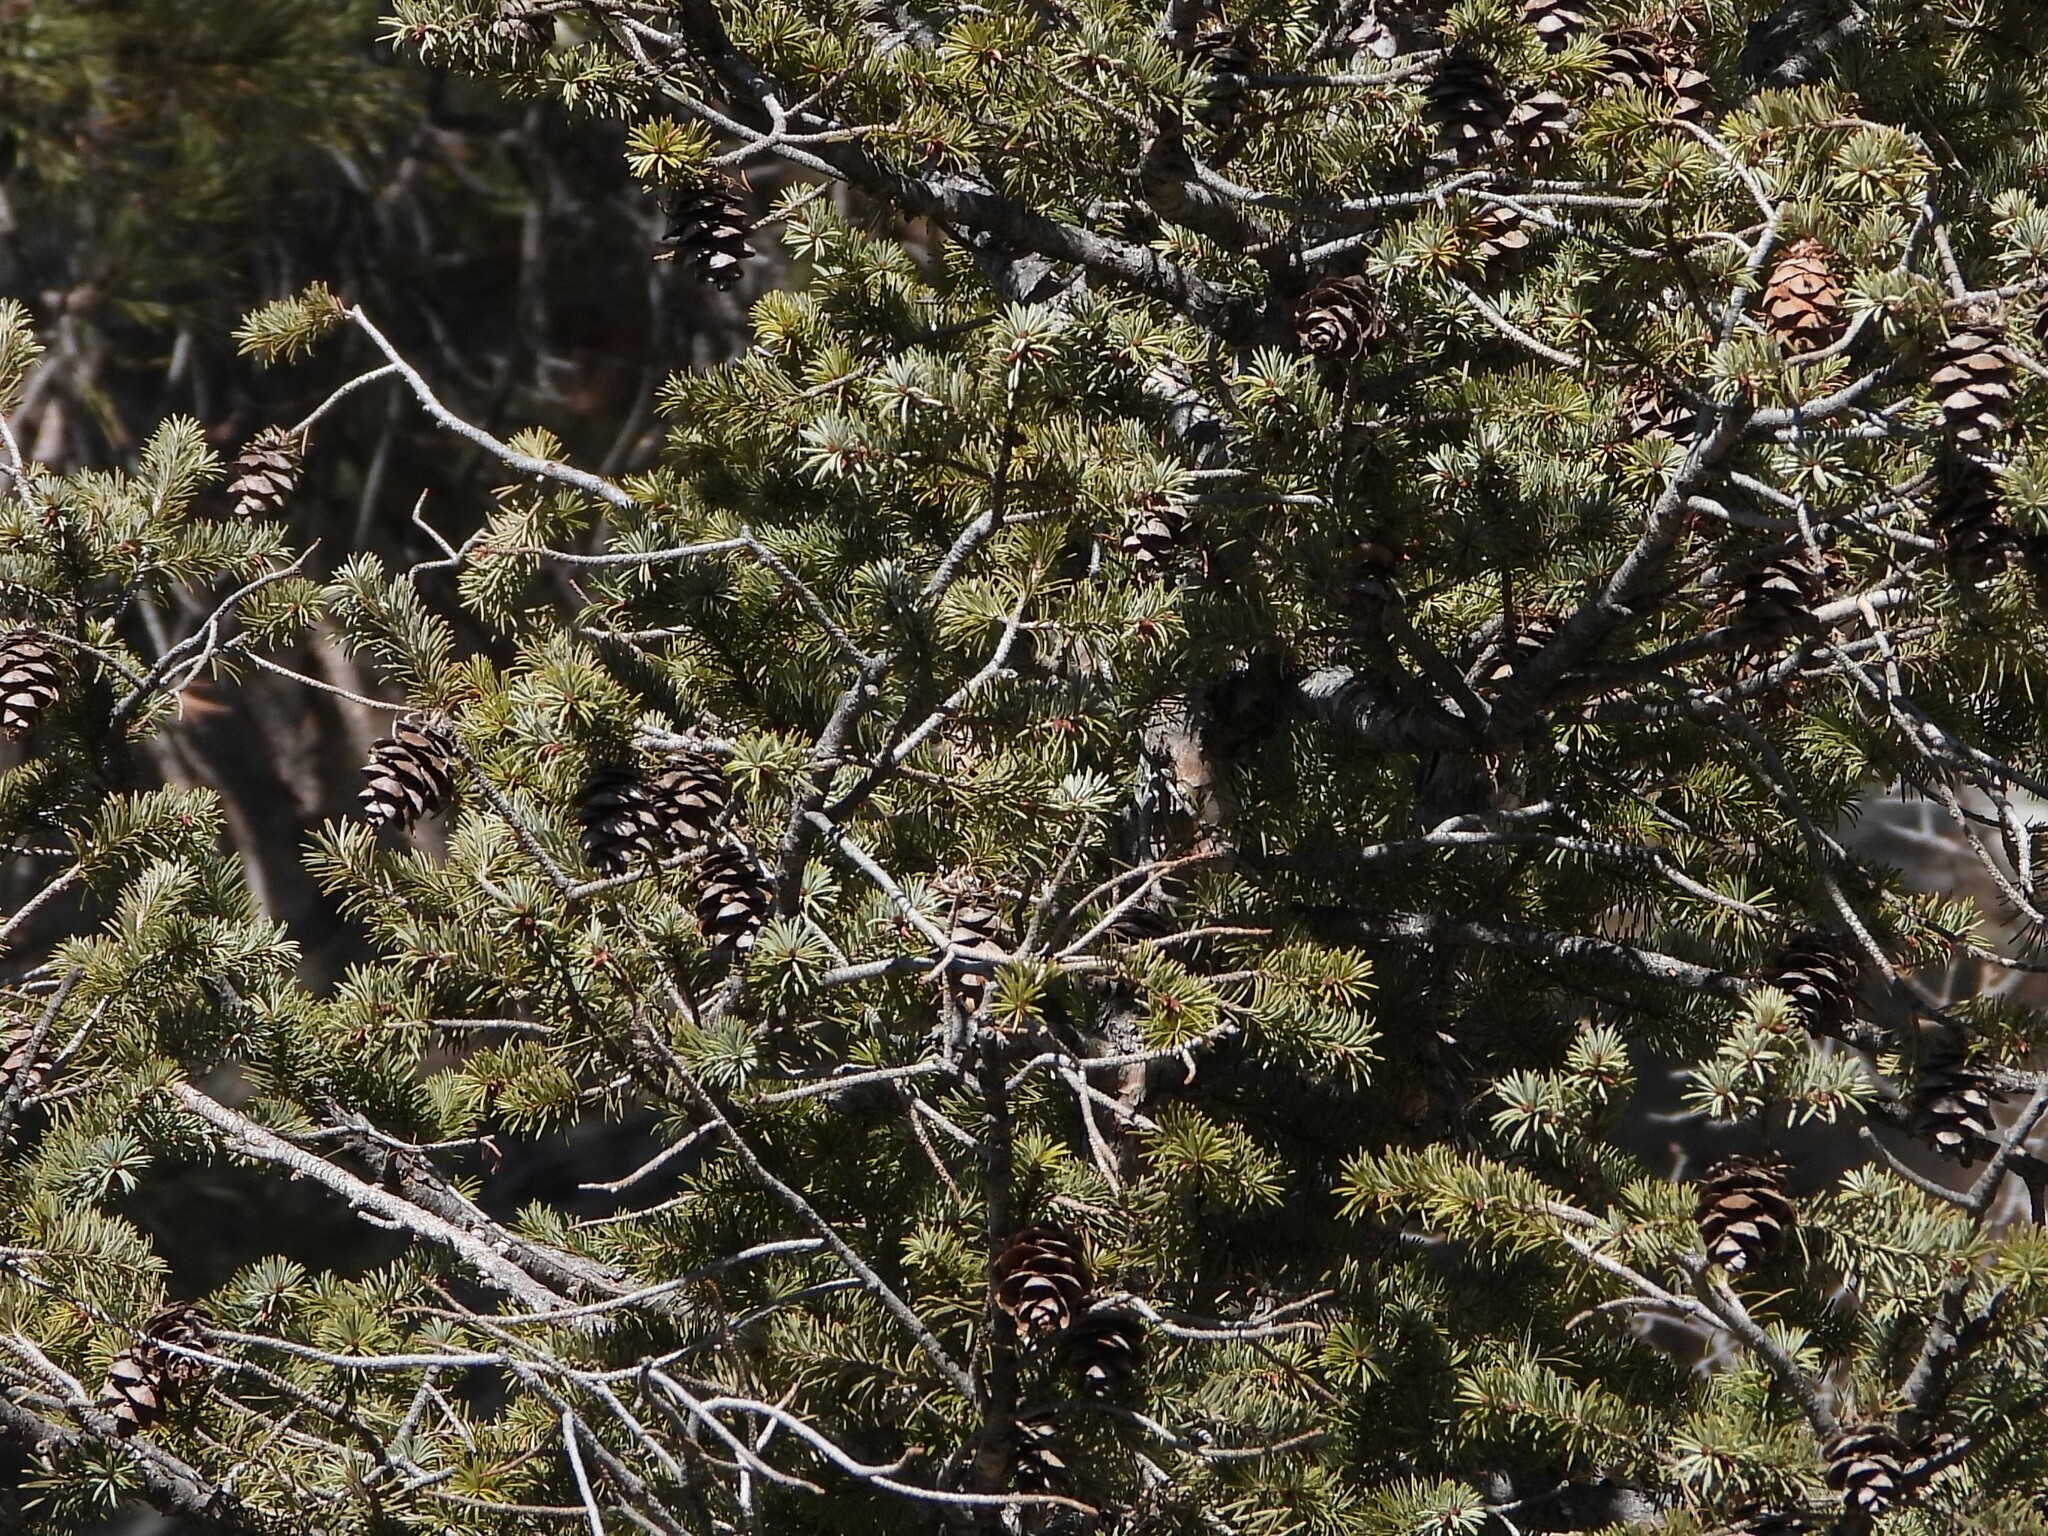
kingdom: Plantae
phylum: Tracheophyta
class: Pinopsida
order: Pinales
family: Pinaceae
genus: Pseudotsuga
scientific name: Pseudotsuga menziesii
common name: Douglas fir
